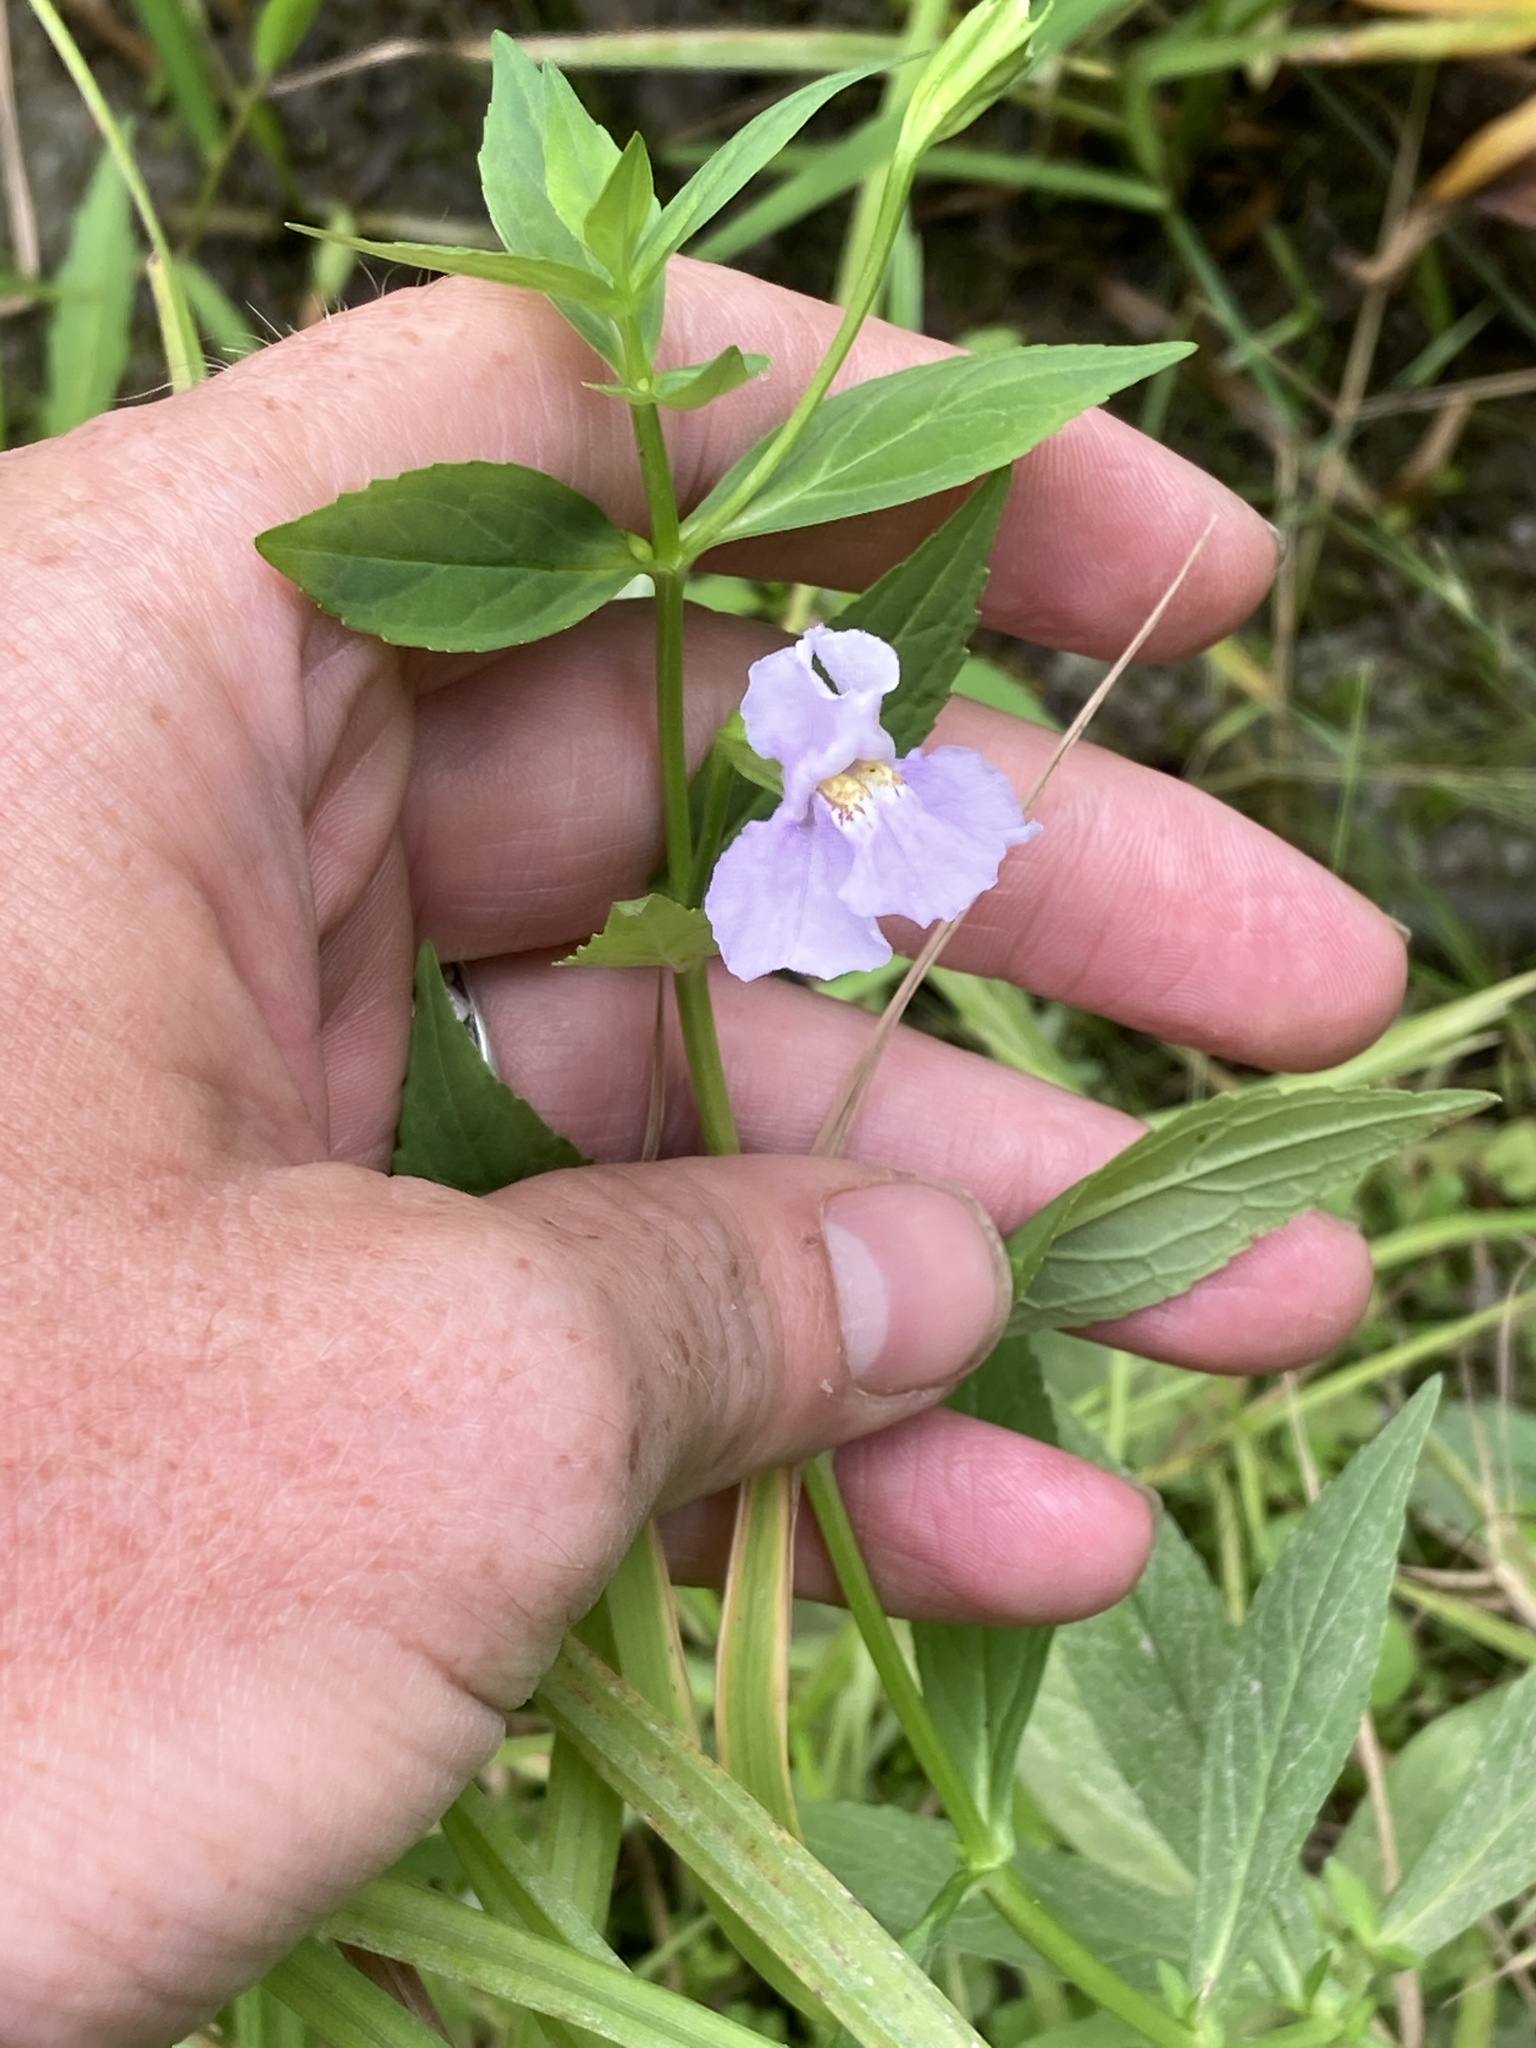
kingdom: Plantae
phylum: Tracheophyta
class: Magnoliopsida
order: Lamiales
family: Phrymaceae
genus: Mimulus
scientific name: Mimulus ringens
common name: Allegheny monkeyflower
